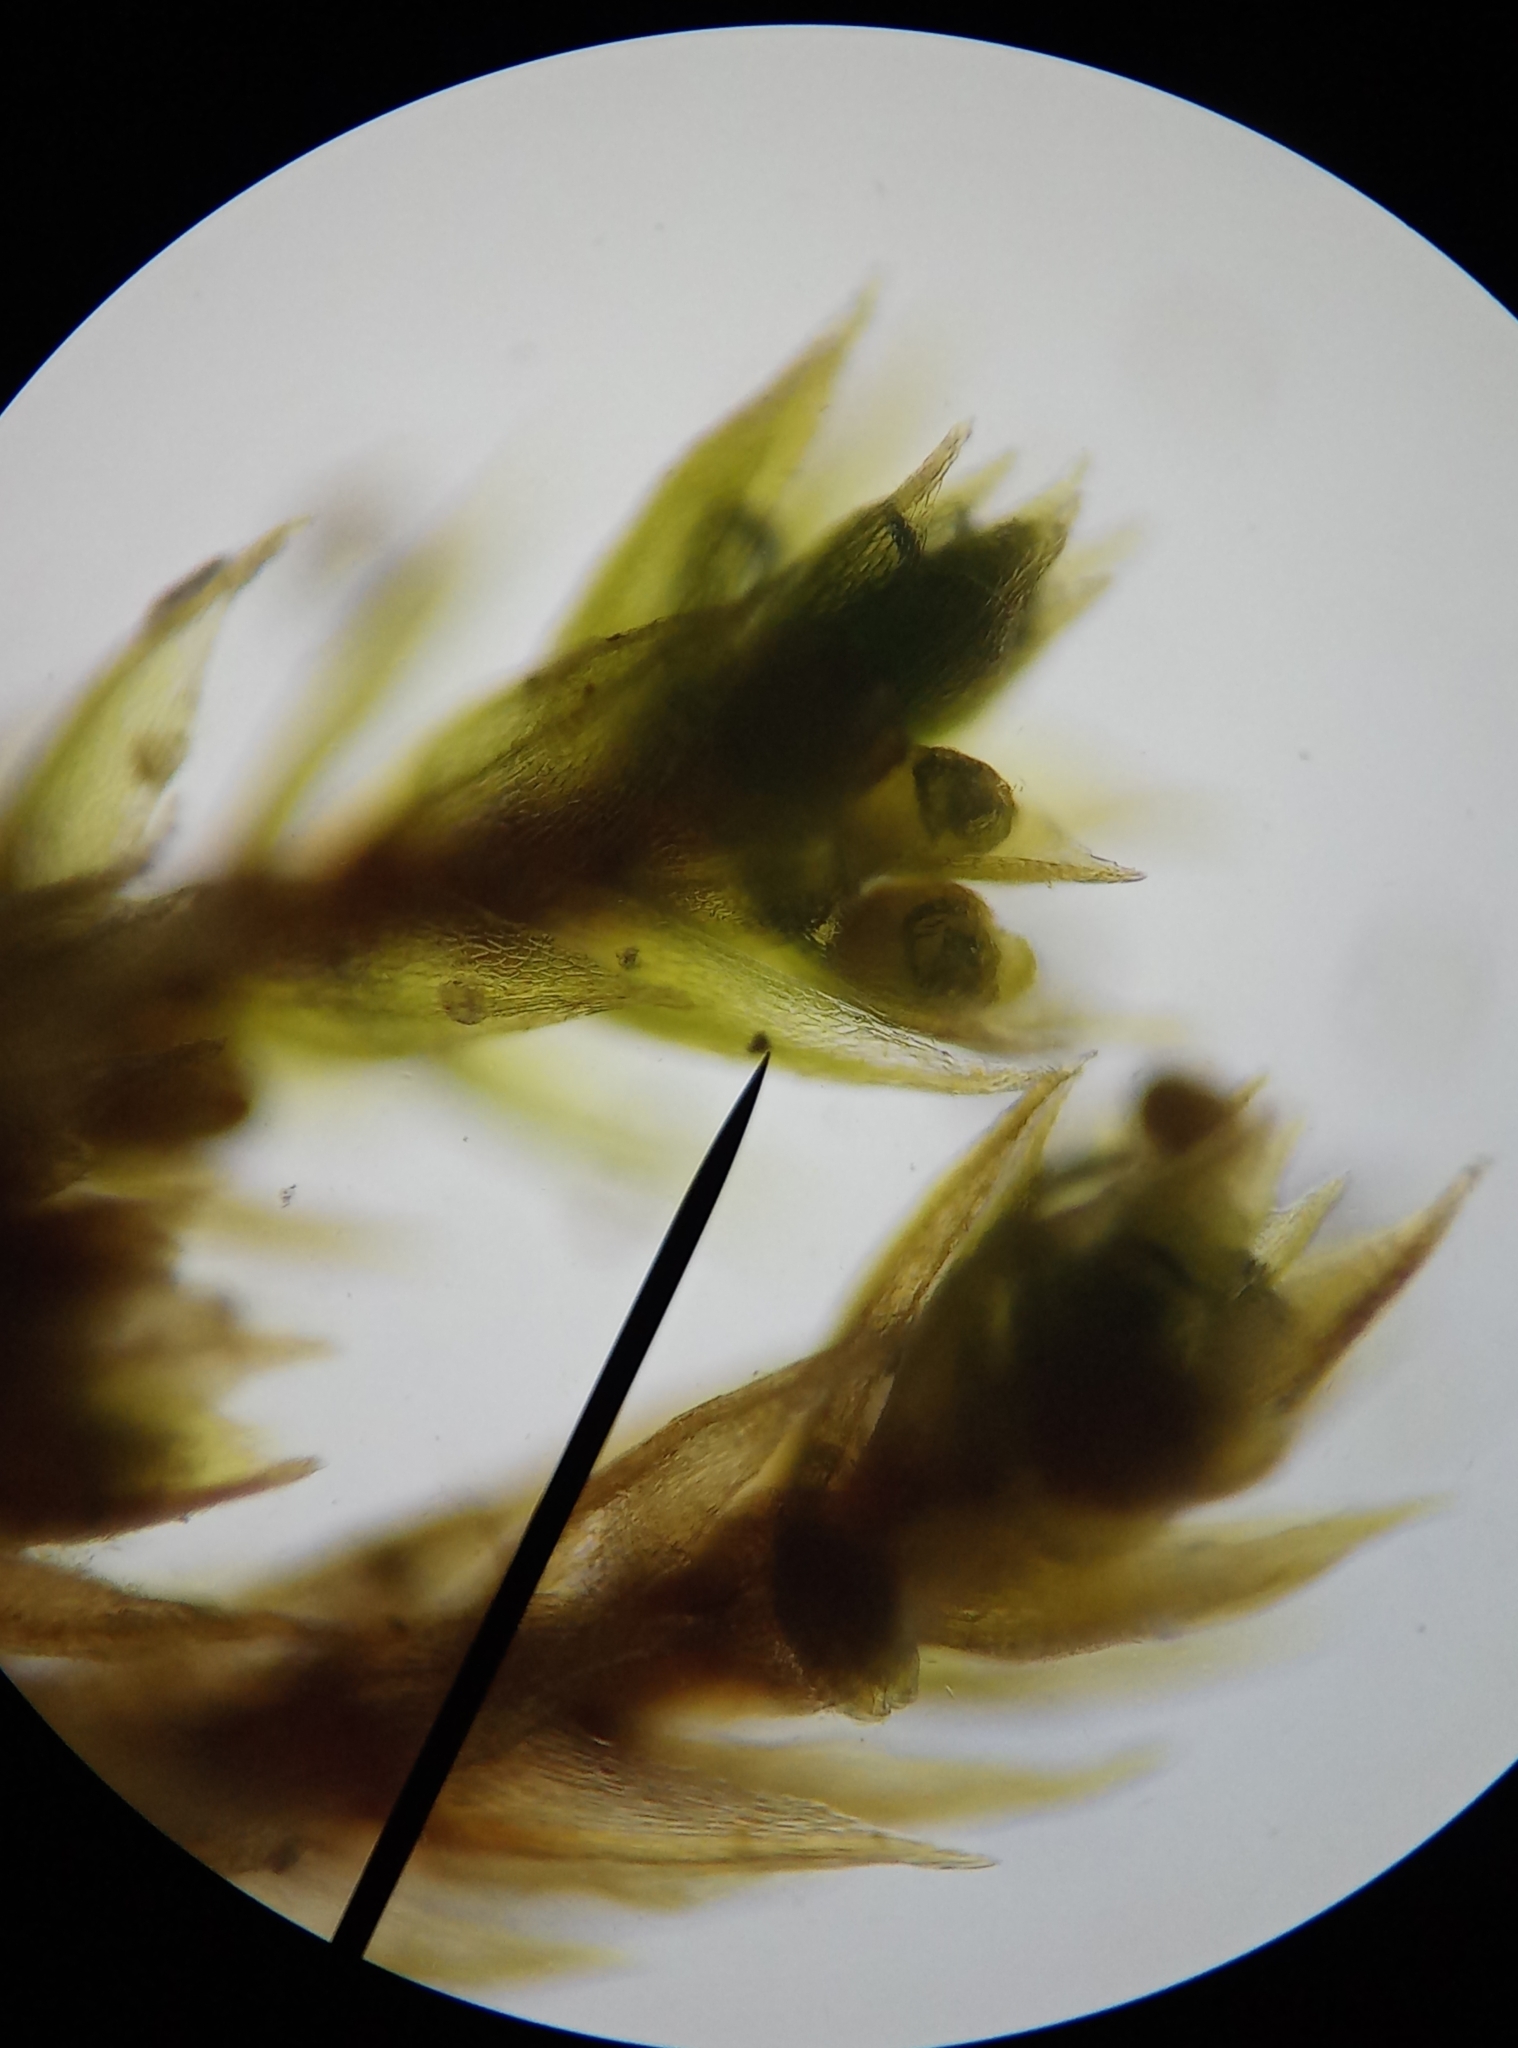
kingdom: Plantae
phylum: Bryophyta
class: Bryopsida
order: Bryales
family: Bryaceae
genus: Gemmabryum
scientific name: Gemmabryum dichotomum
